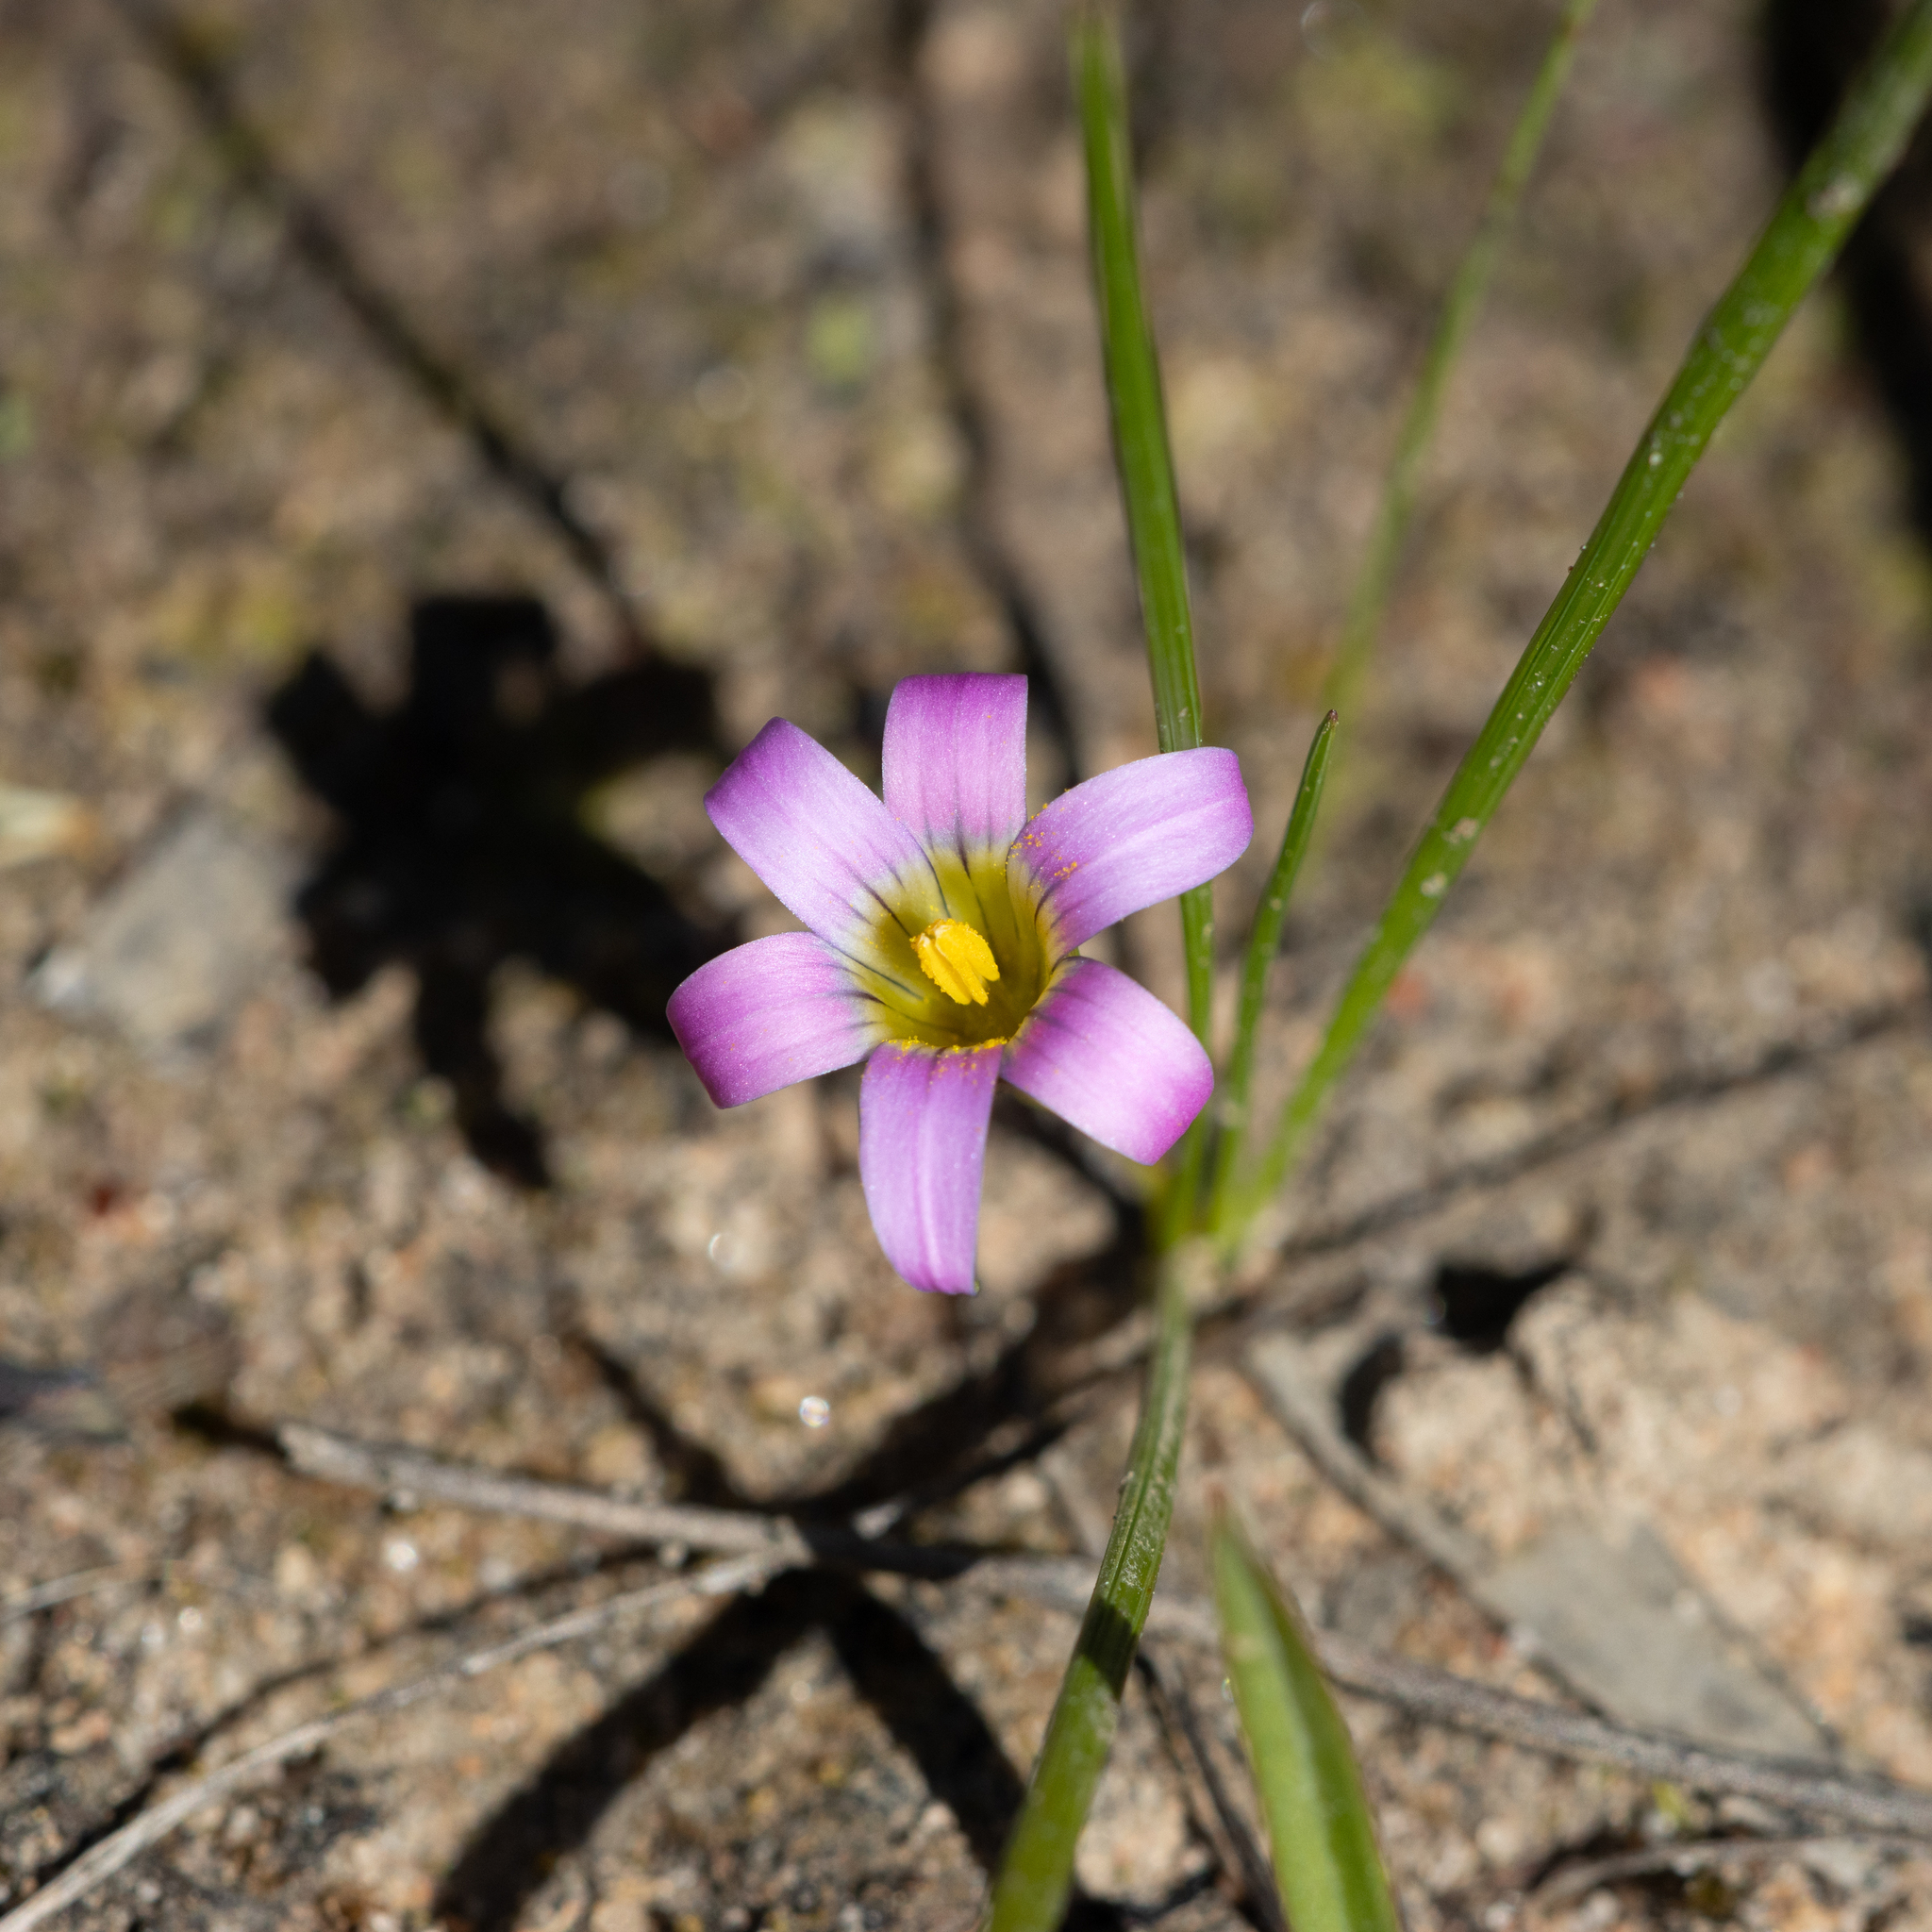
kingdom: Plantae
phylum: Tracheophyta
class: Liliopsida
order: Asparagales
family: Iridaceae
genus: Romulea
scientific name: Romulea rosea
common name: Oniongrass
